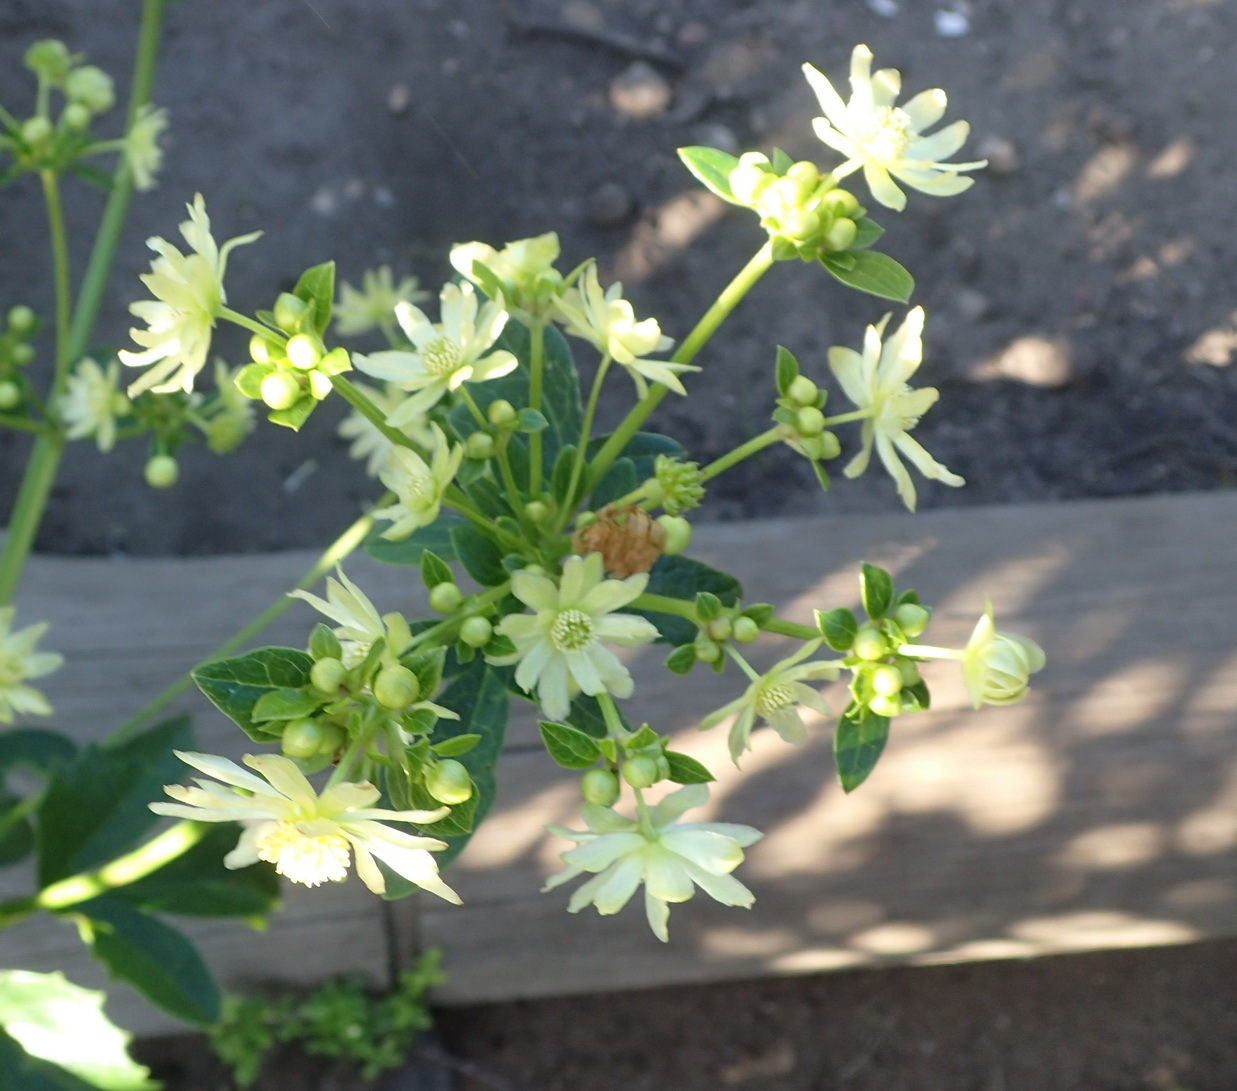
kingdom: Plantae
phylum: Tracheophyta
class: Magnoliopsida
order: Ranunculales
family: Ranunculaceae
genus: Knowltonia
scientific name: Knowltonia vesicatoria
